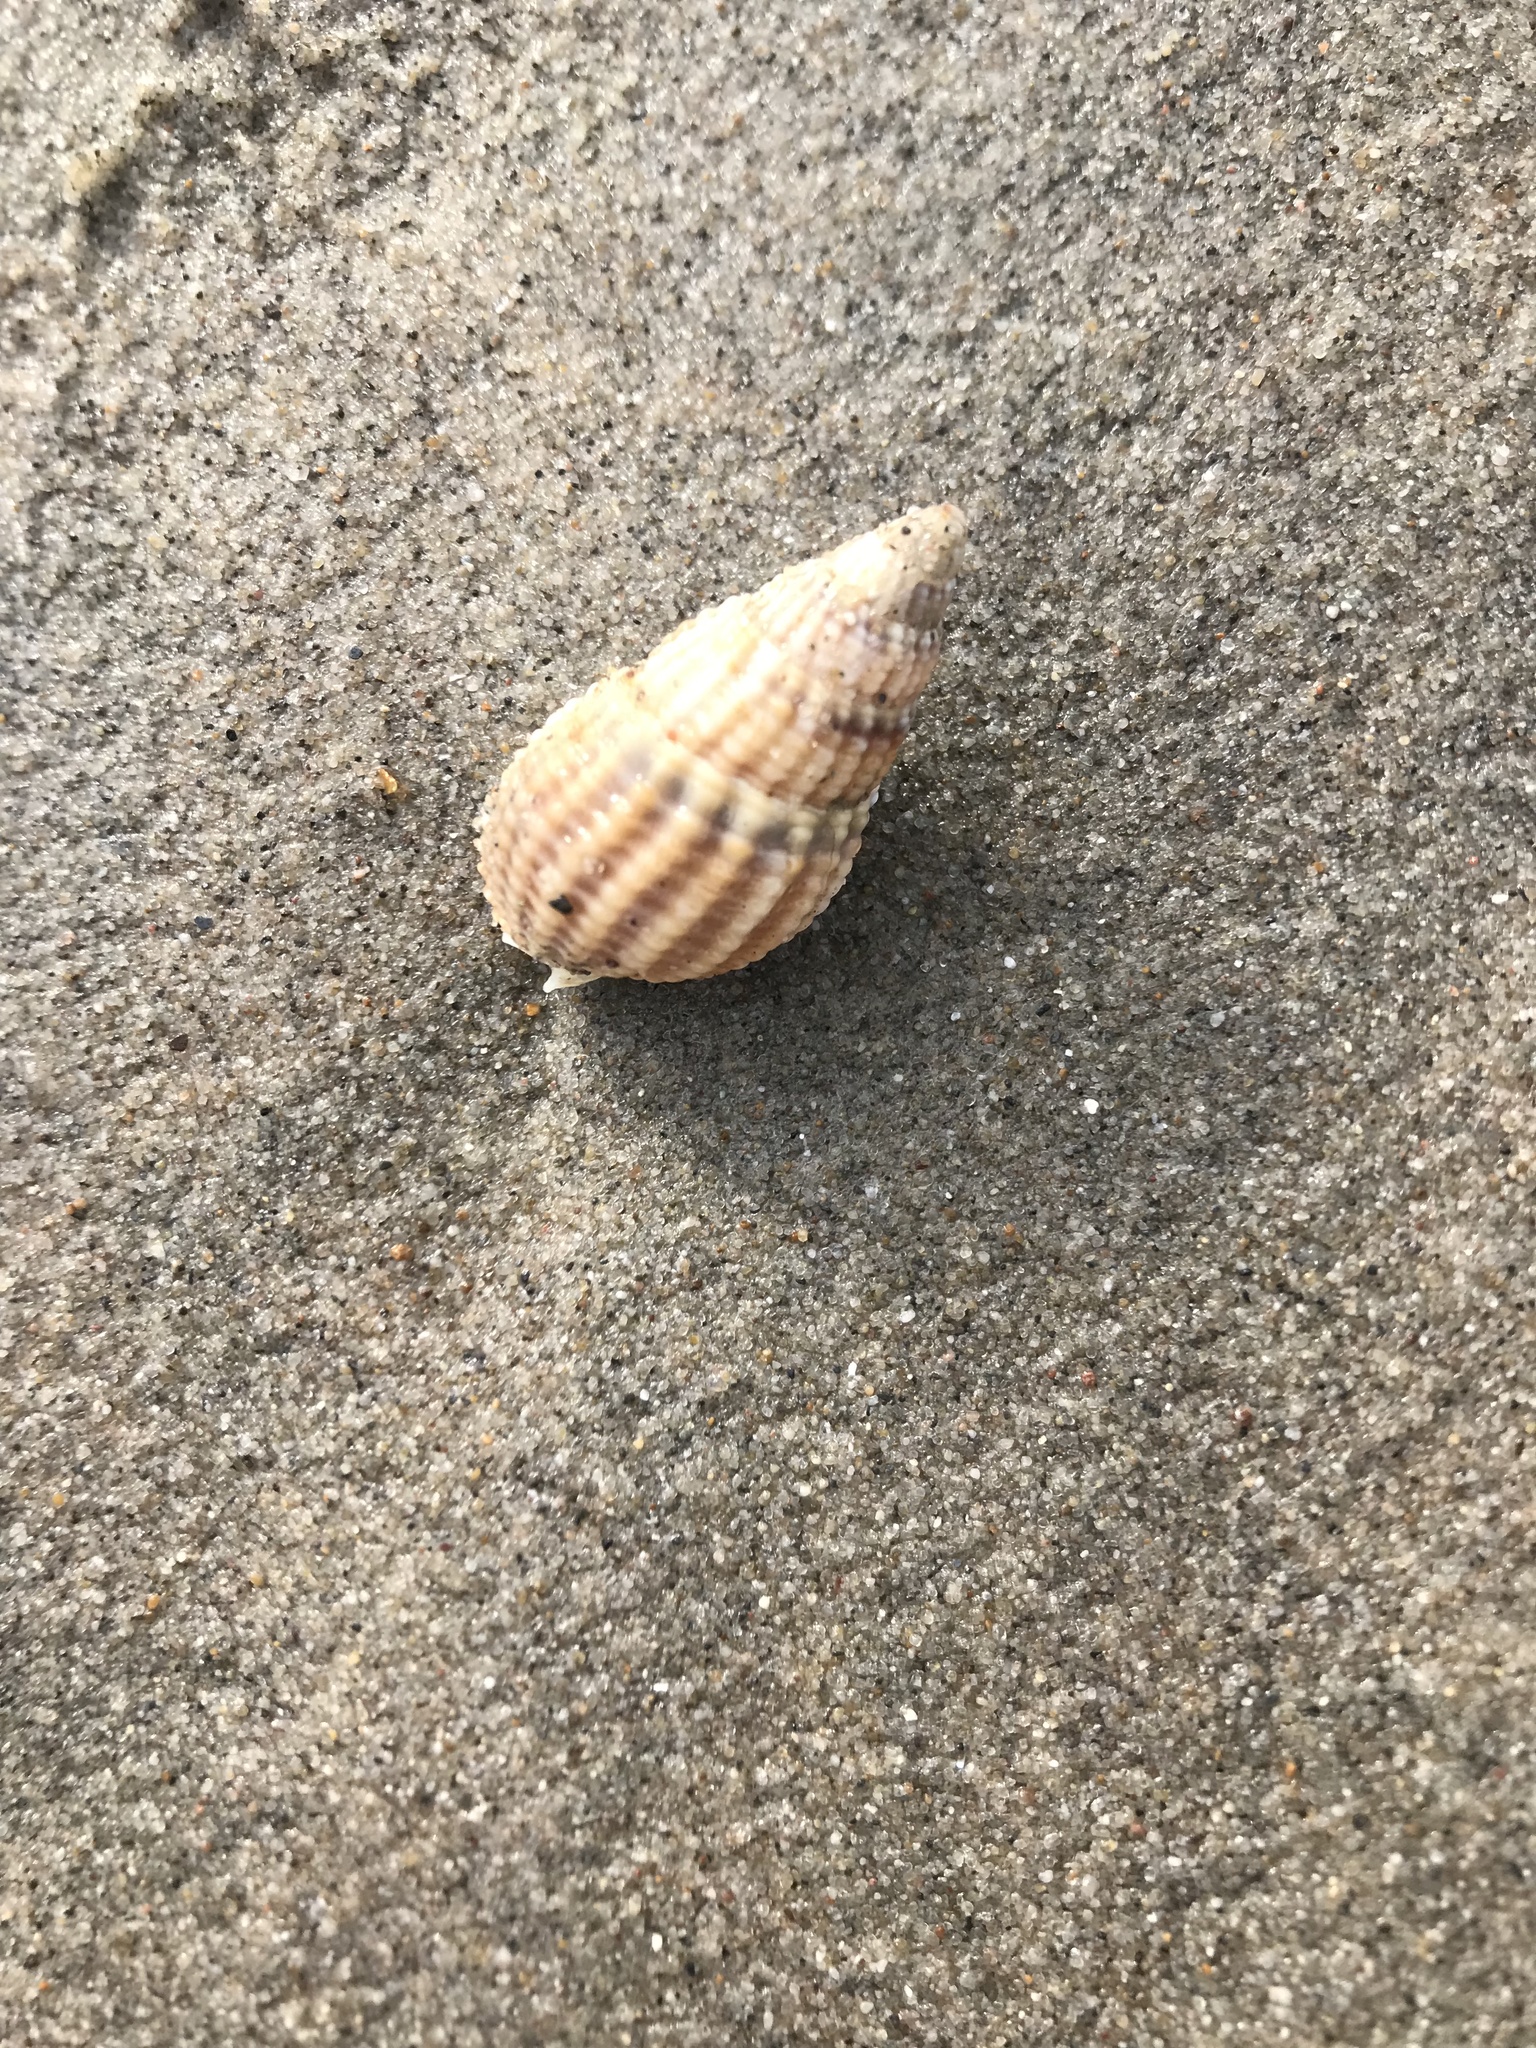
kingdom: Animalia
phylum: Mollusca
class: Gastropoda
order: Neogastropoda
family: Nassariidae
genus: Tritia
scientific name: Tritia reticulata
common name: Netted dog whelk
